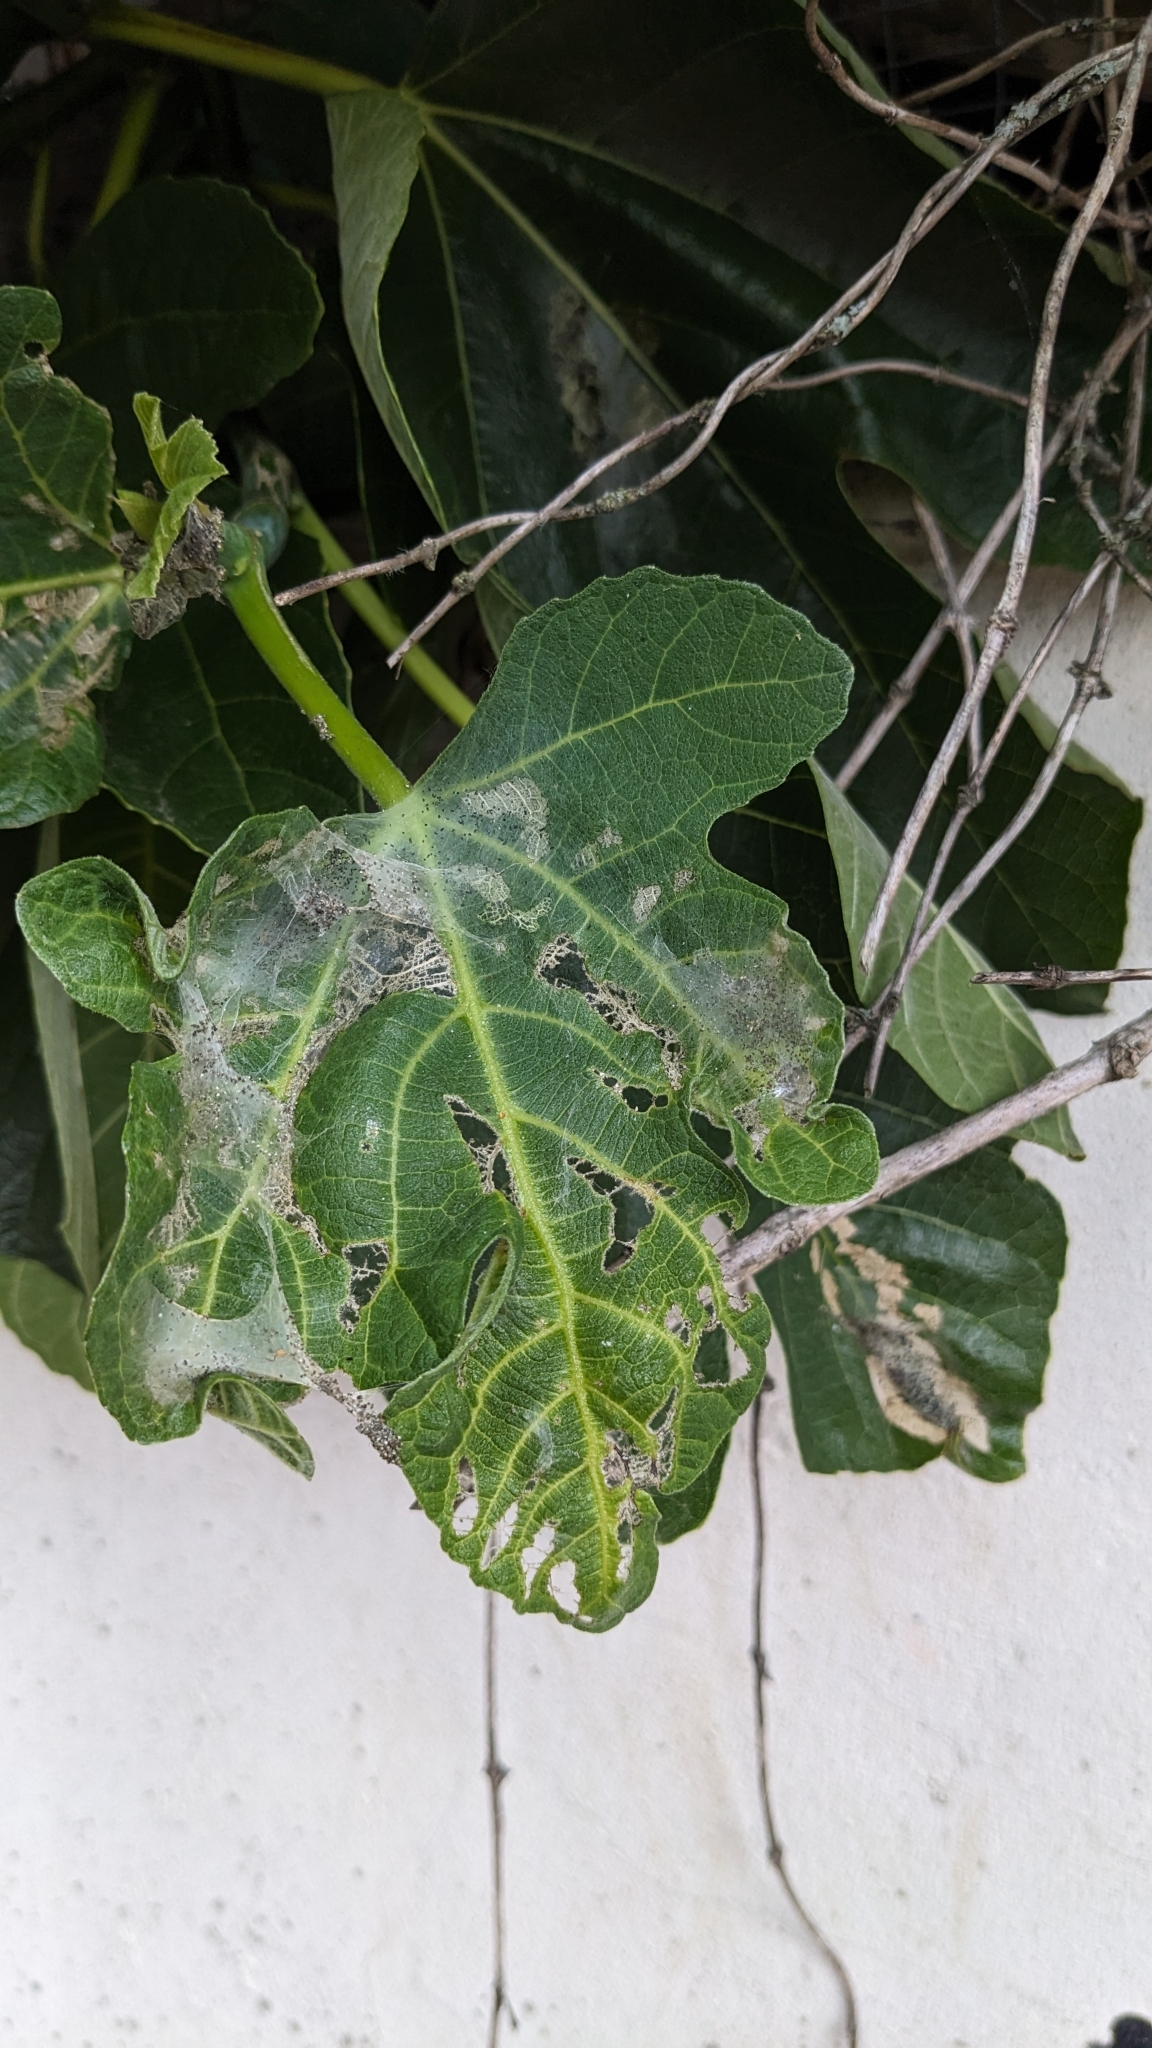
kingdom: Animalia
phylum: Arthropoda
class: Insecta
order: Lepidoptera
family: Choreutidae
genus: Anthophila
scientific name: Anthophila nemorana
